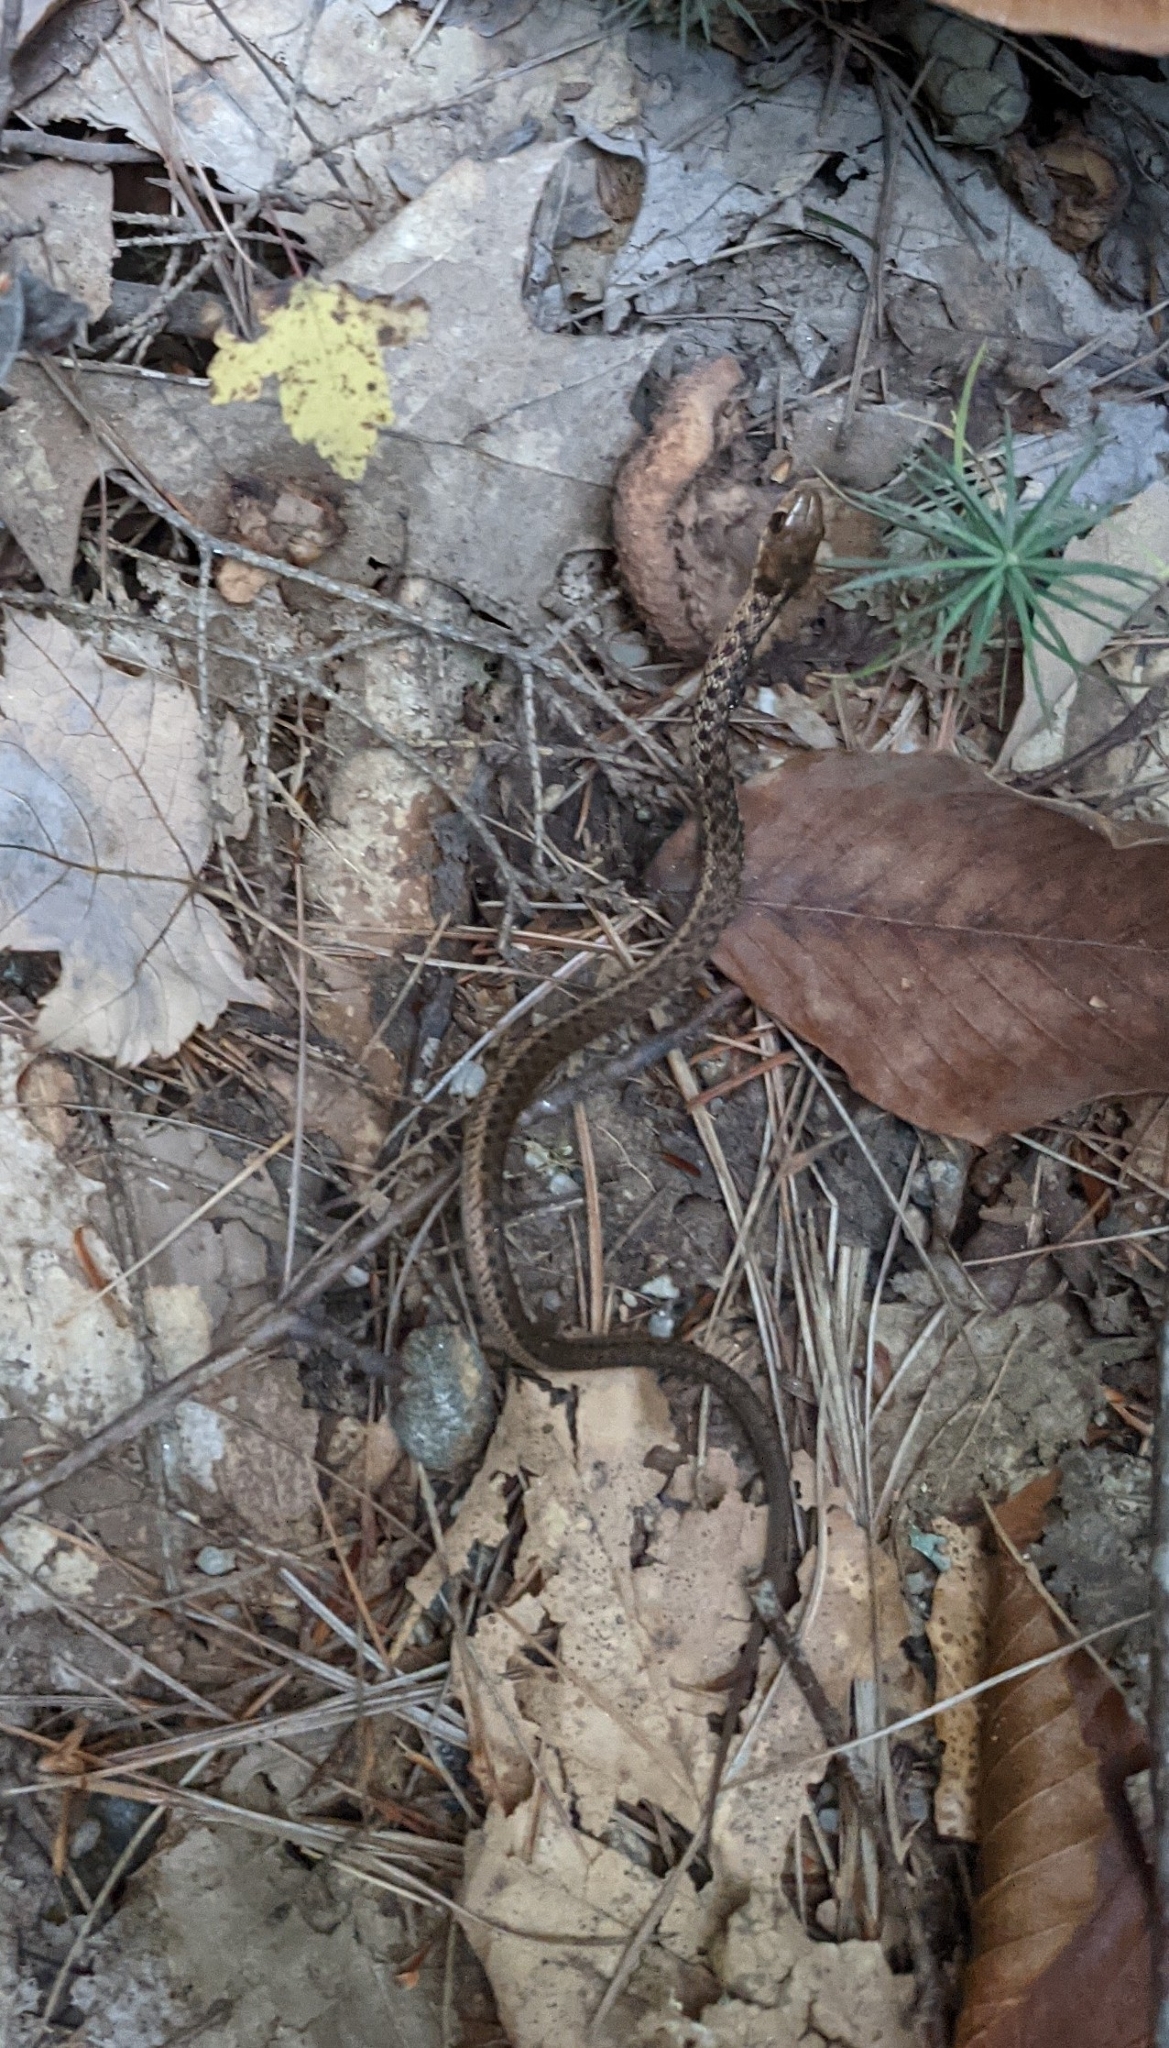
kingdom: Animalia
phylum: Chordata
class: Squamata
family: Colubridae
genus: Thamnophis
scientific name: Thamnophis sirtalis
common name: Common garter snake
